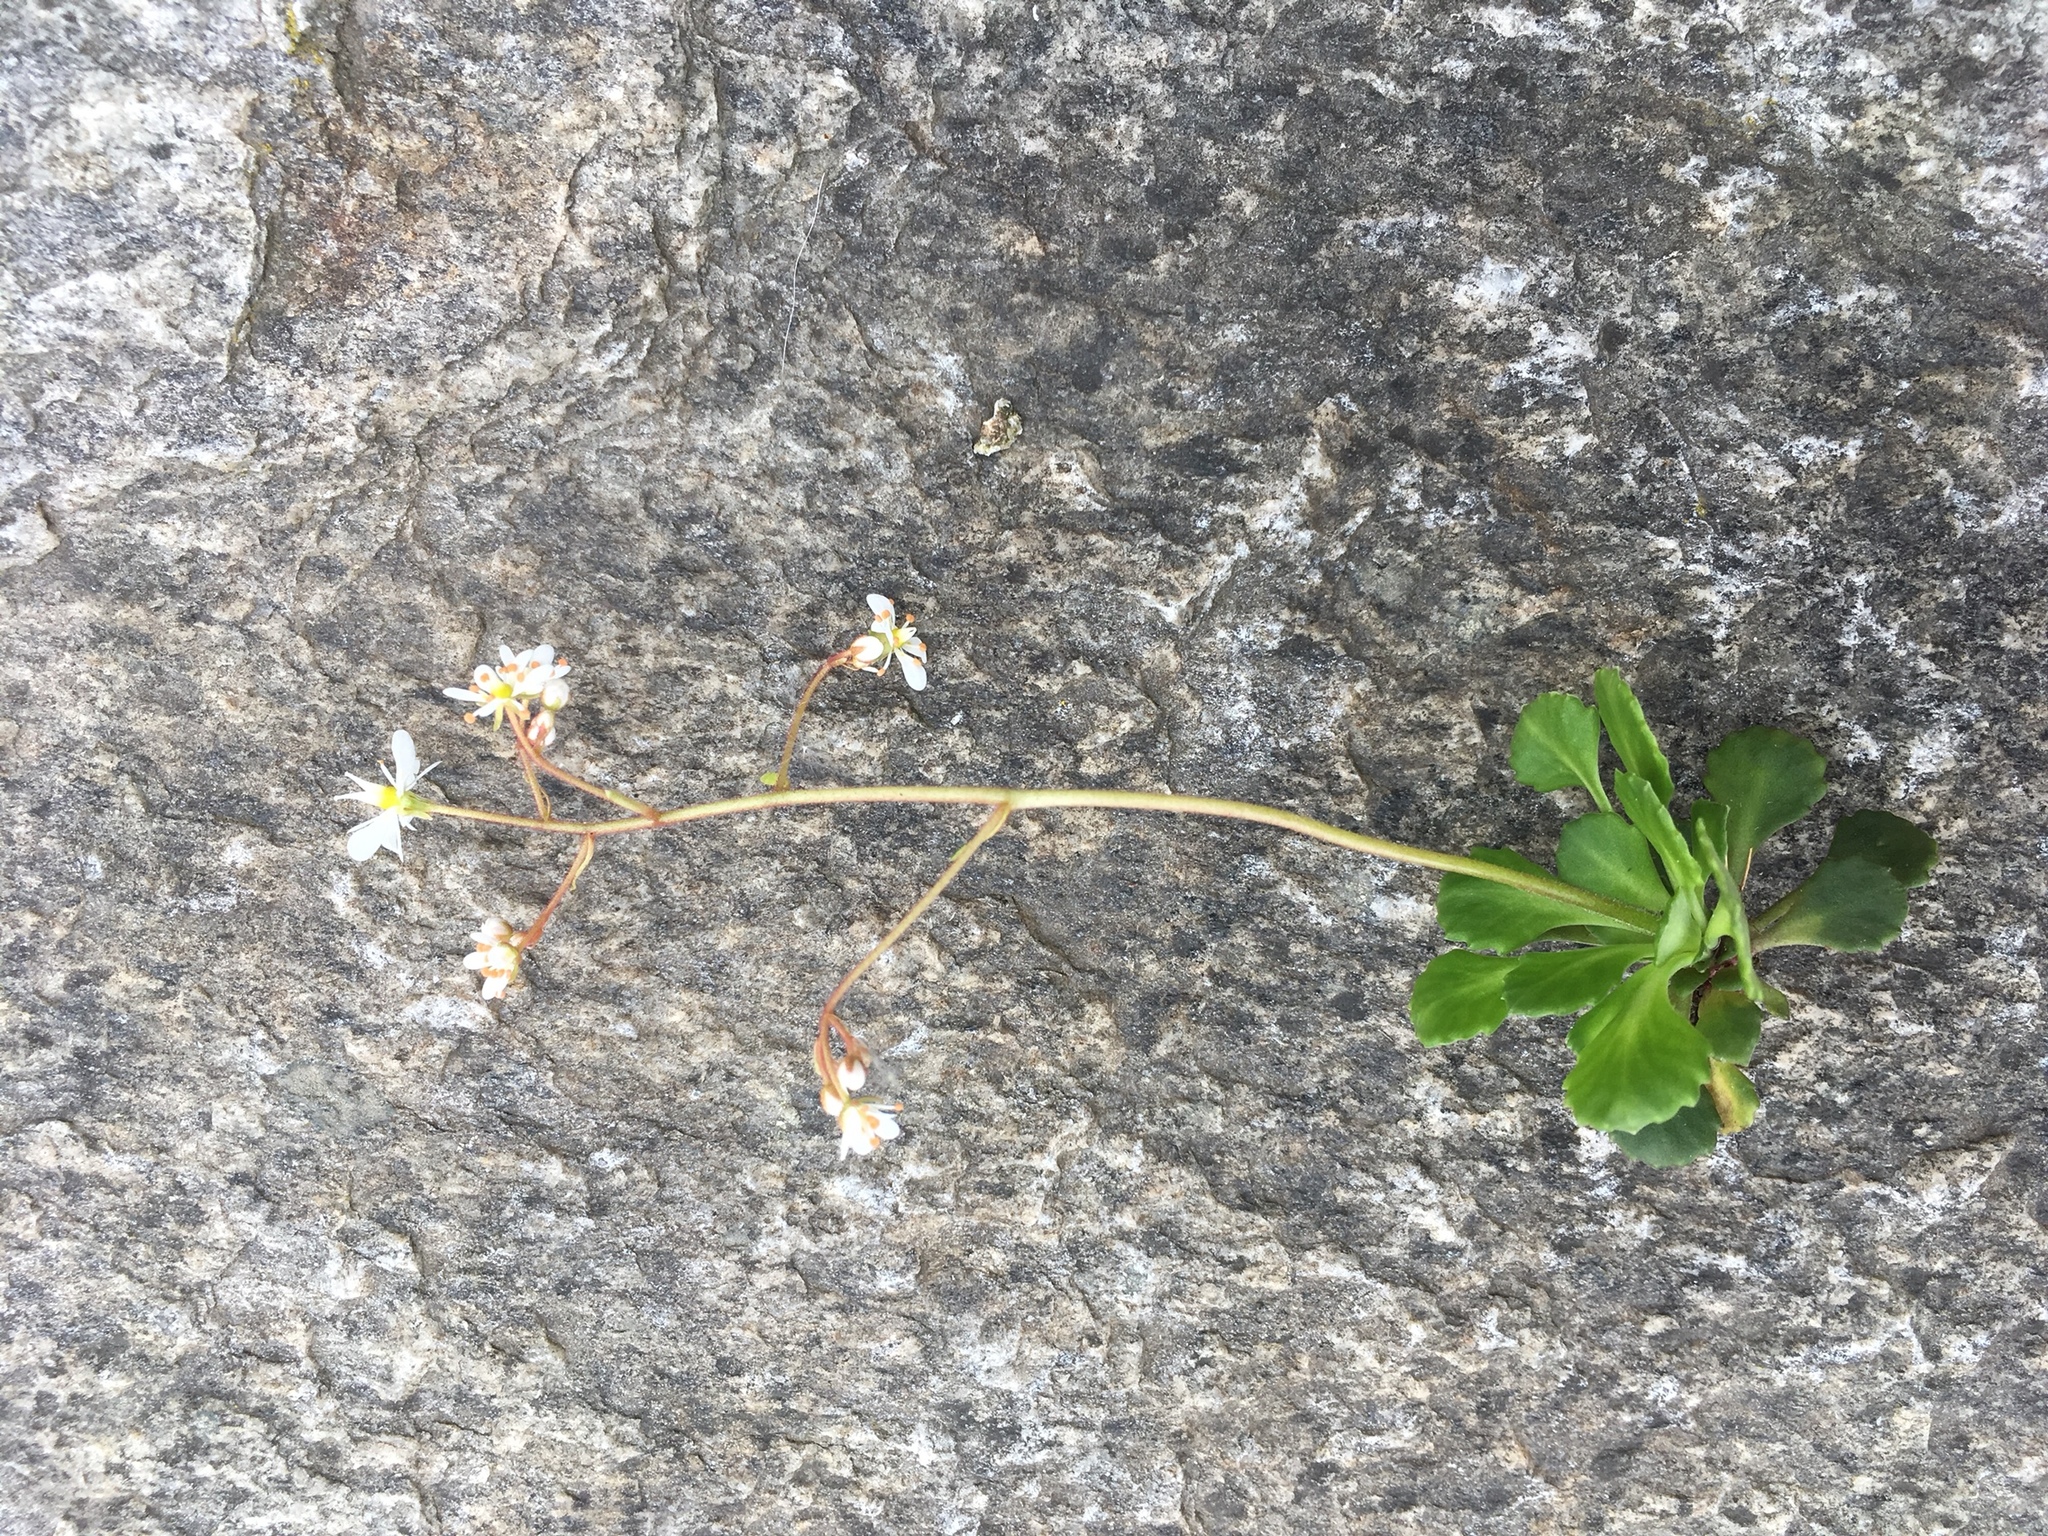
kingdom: Plantae
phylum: Tracheophyta
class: Magnoliopsida
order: Saxifragales
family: Saxifragaceae
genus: Saxifraga
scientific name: Saxifraga cuneifolia
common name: Lesser londonpride
